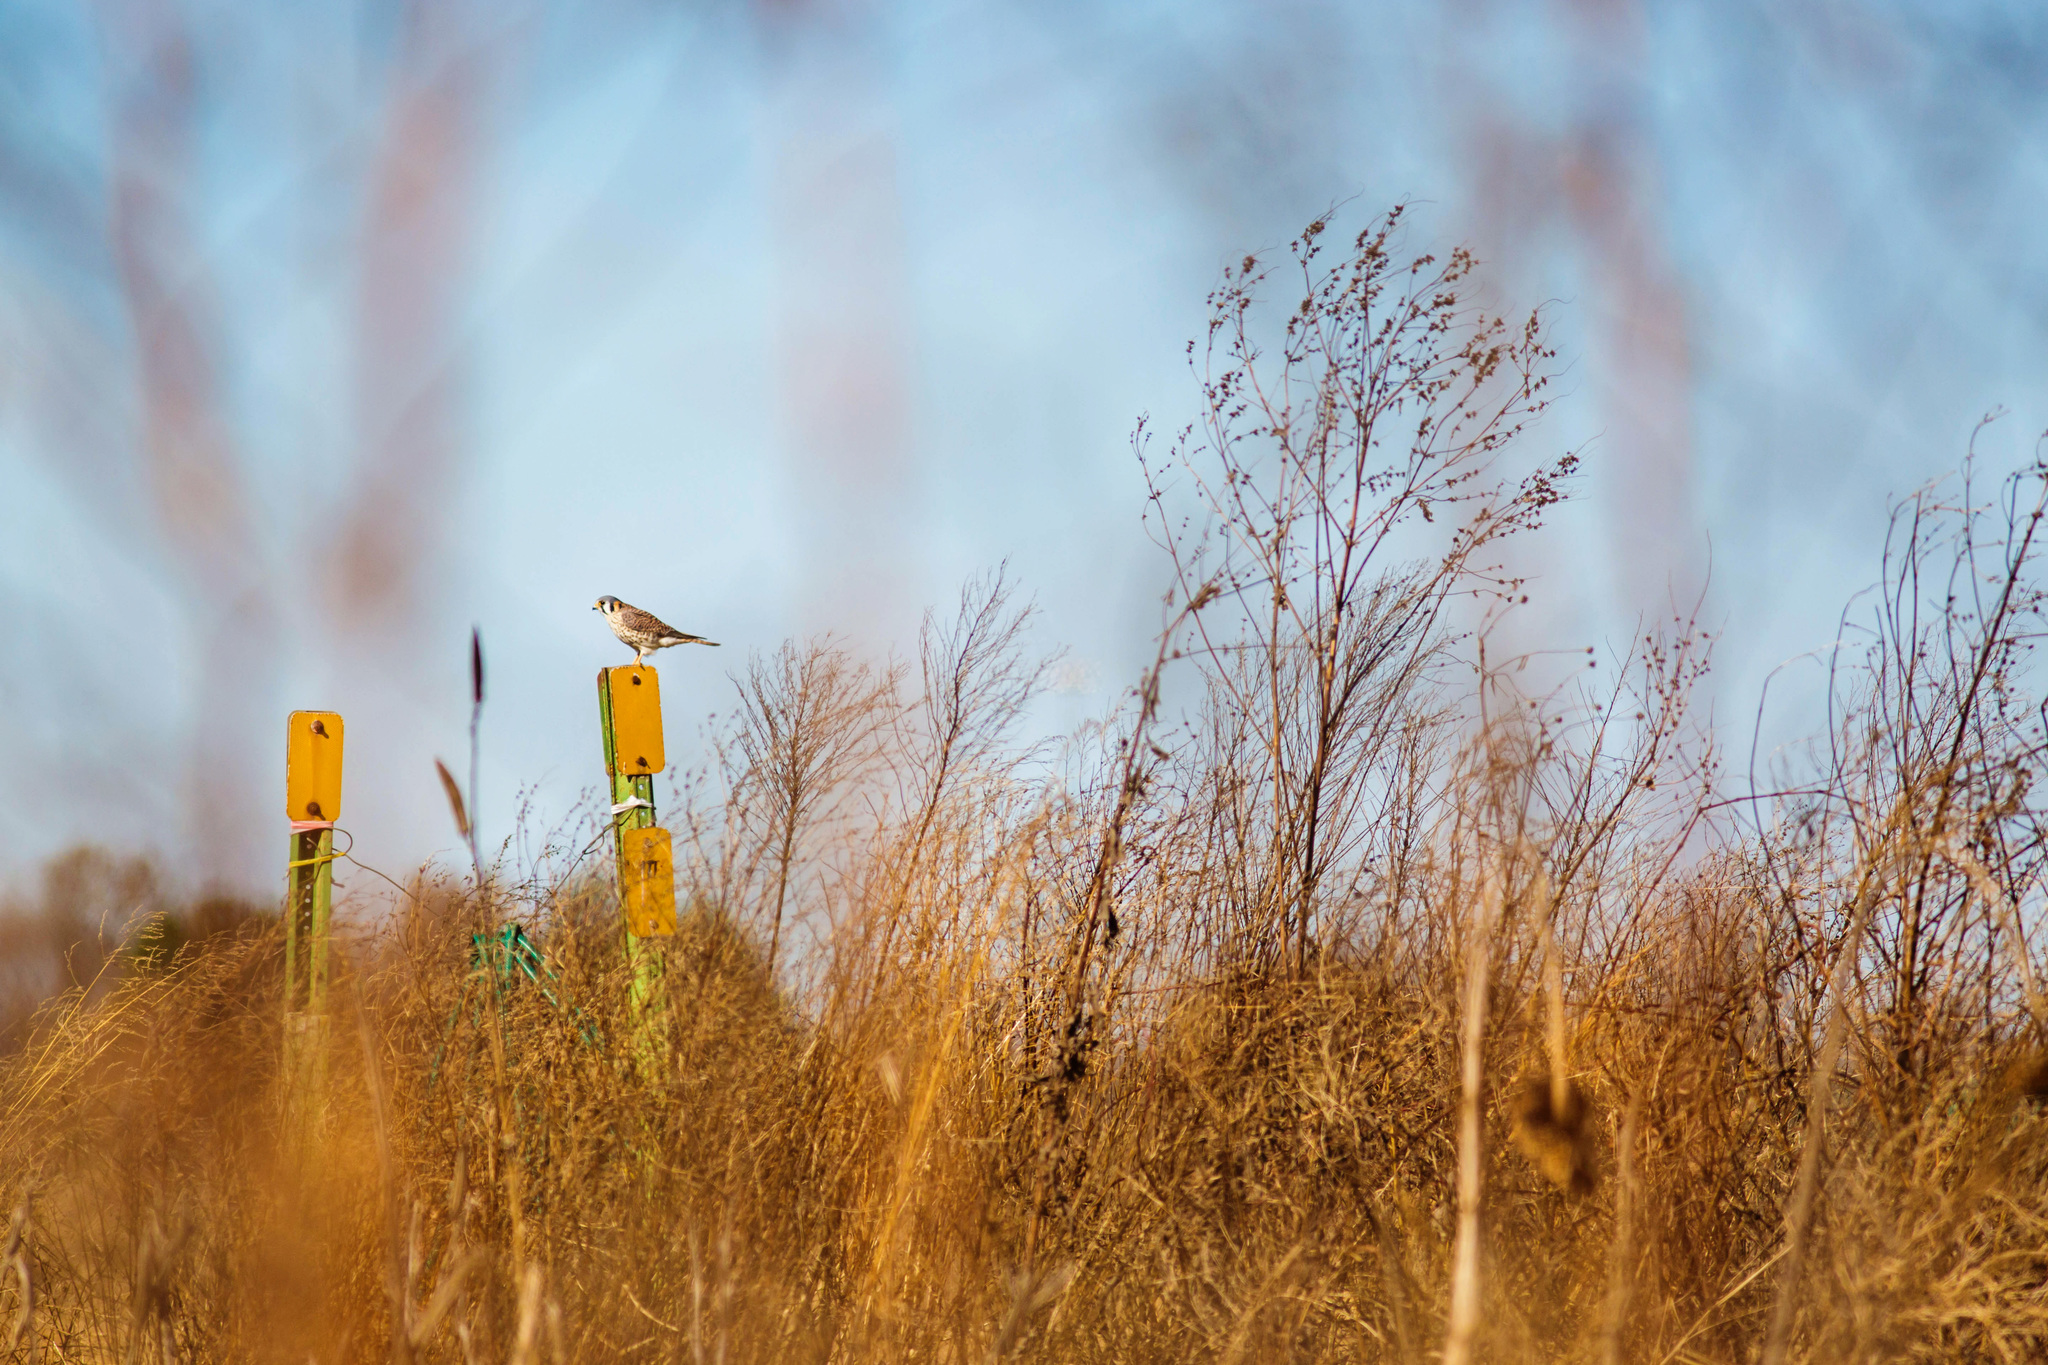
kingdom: Animalia
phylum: Chordata
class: Aves
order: Falconiformes
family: Falconidae
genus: Falco
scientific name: Falco sparverius
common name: American kestrel
